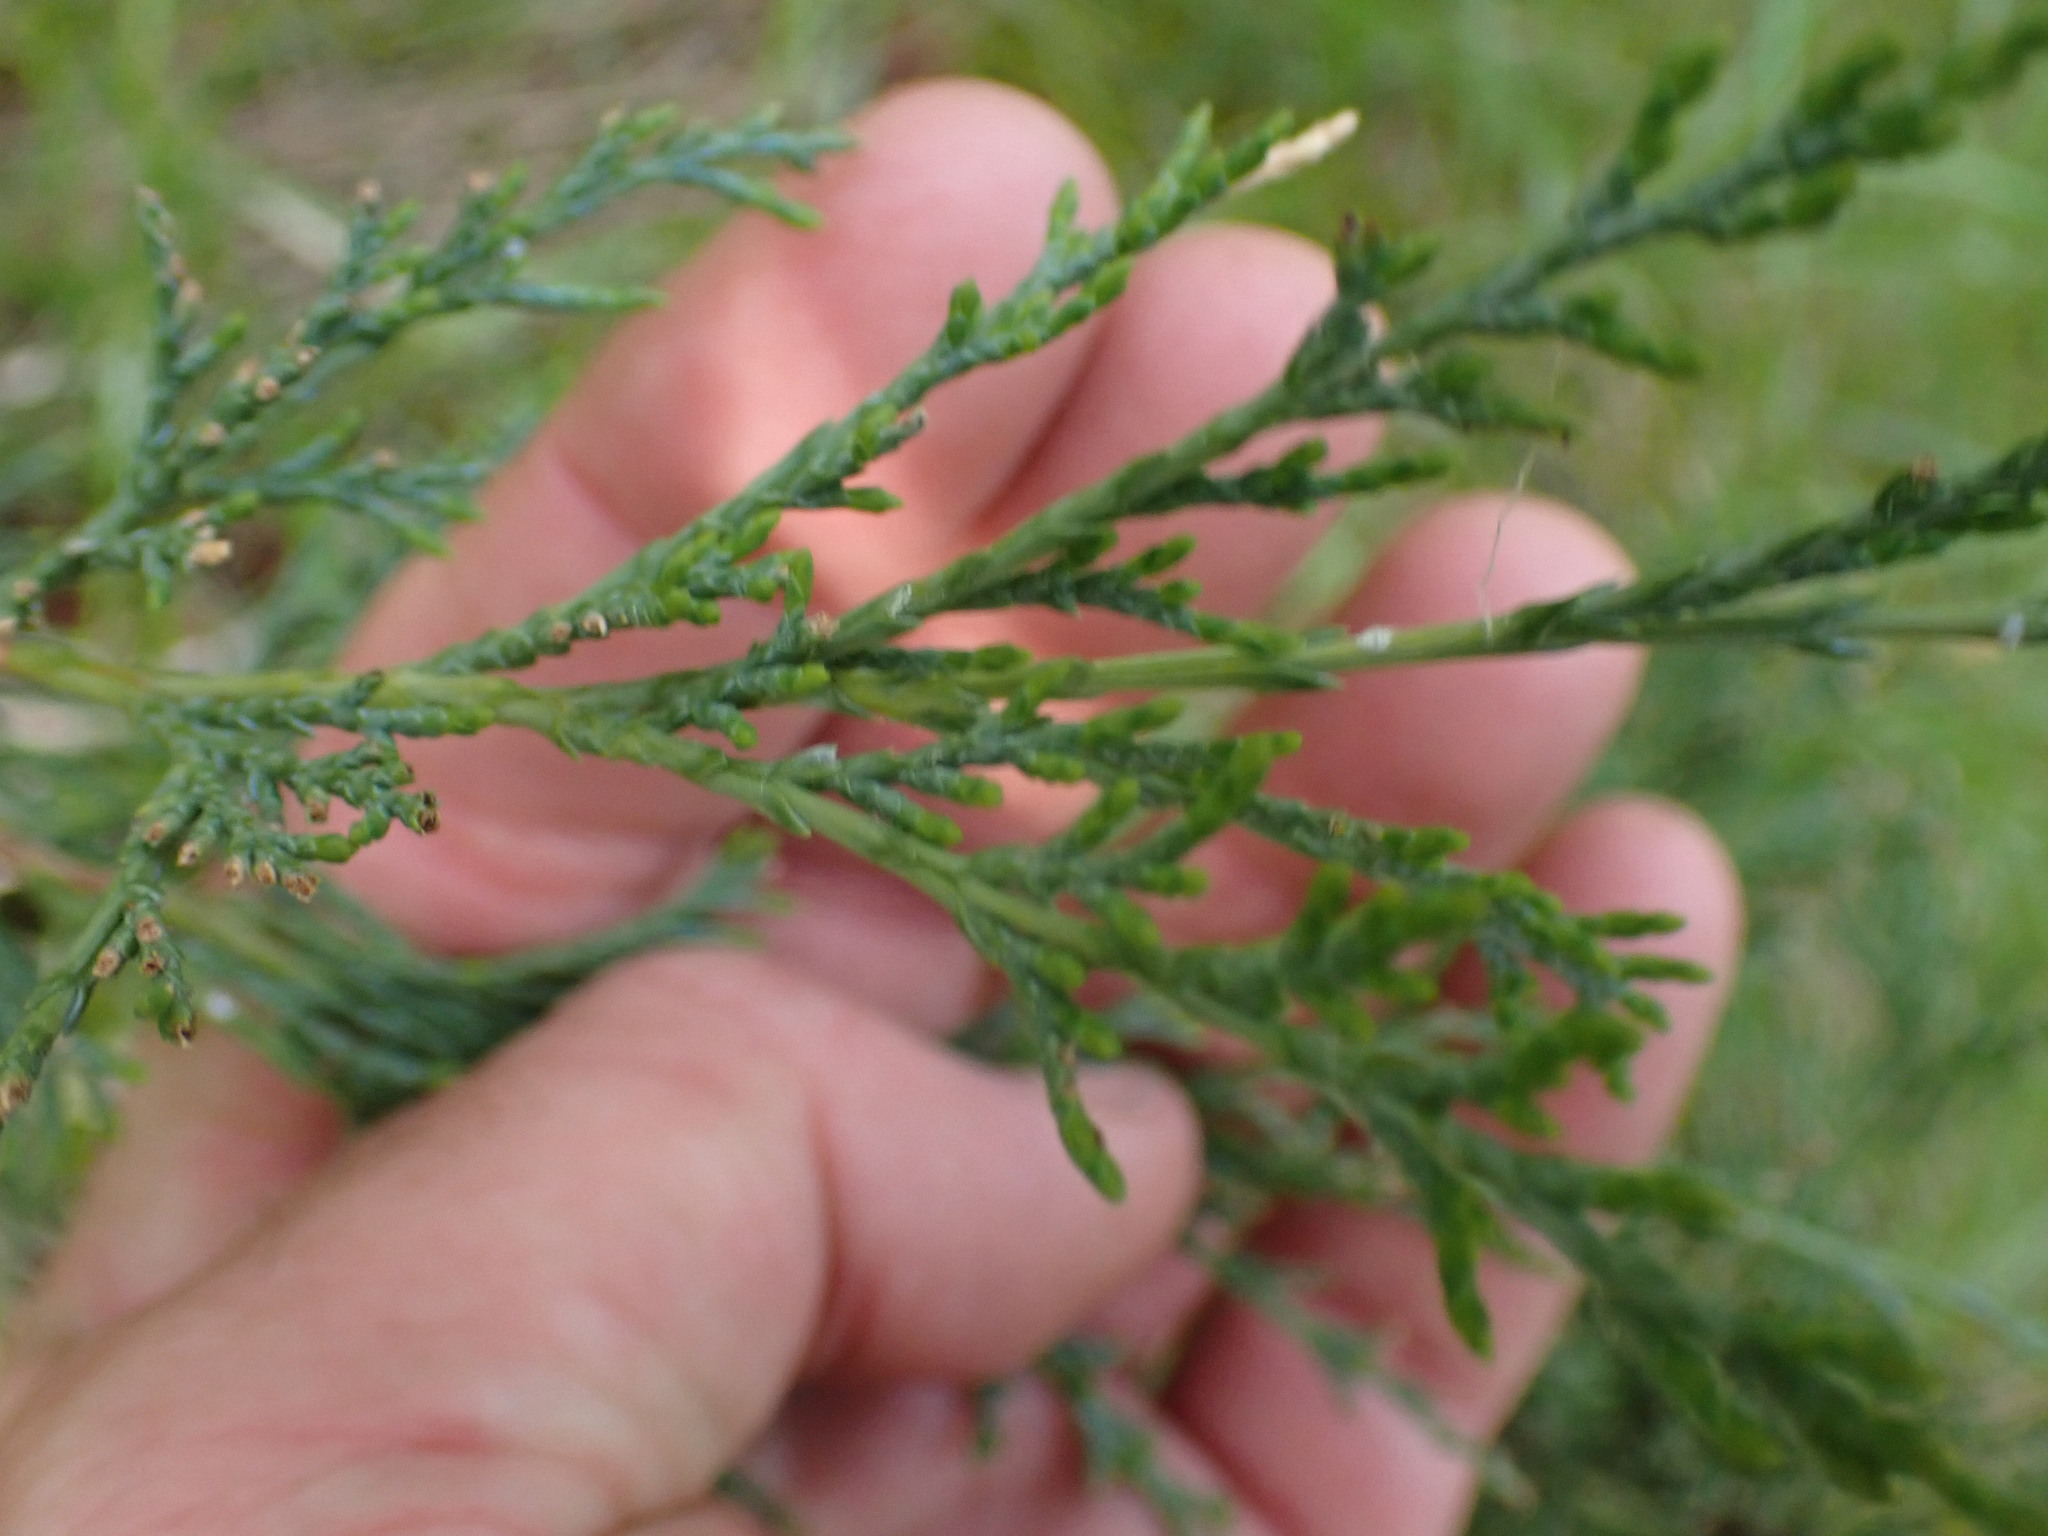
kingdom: Plantae
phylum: Tracheophyta
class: Pinopsida
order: Pinales
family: Cupressaceae
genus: Juniperus
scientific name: Juniperus scopulorum
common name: Rocky mountain juniper
